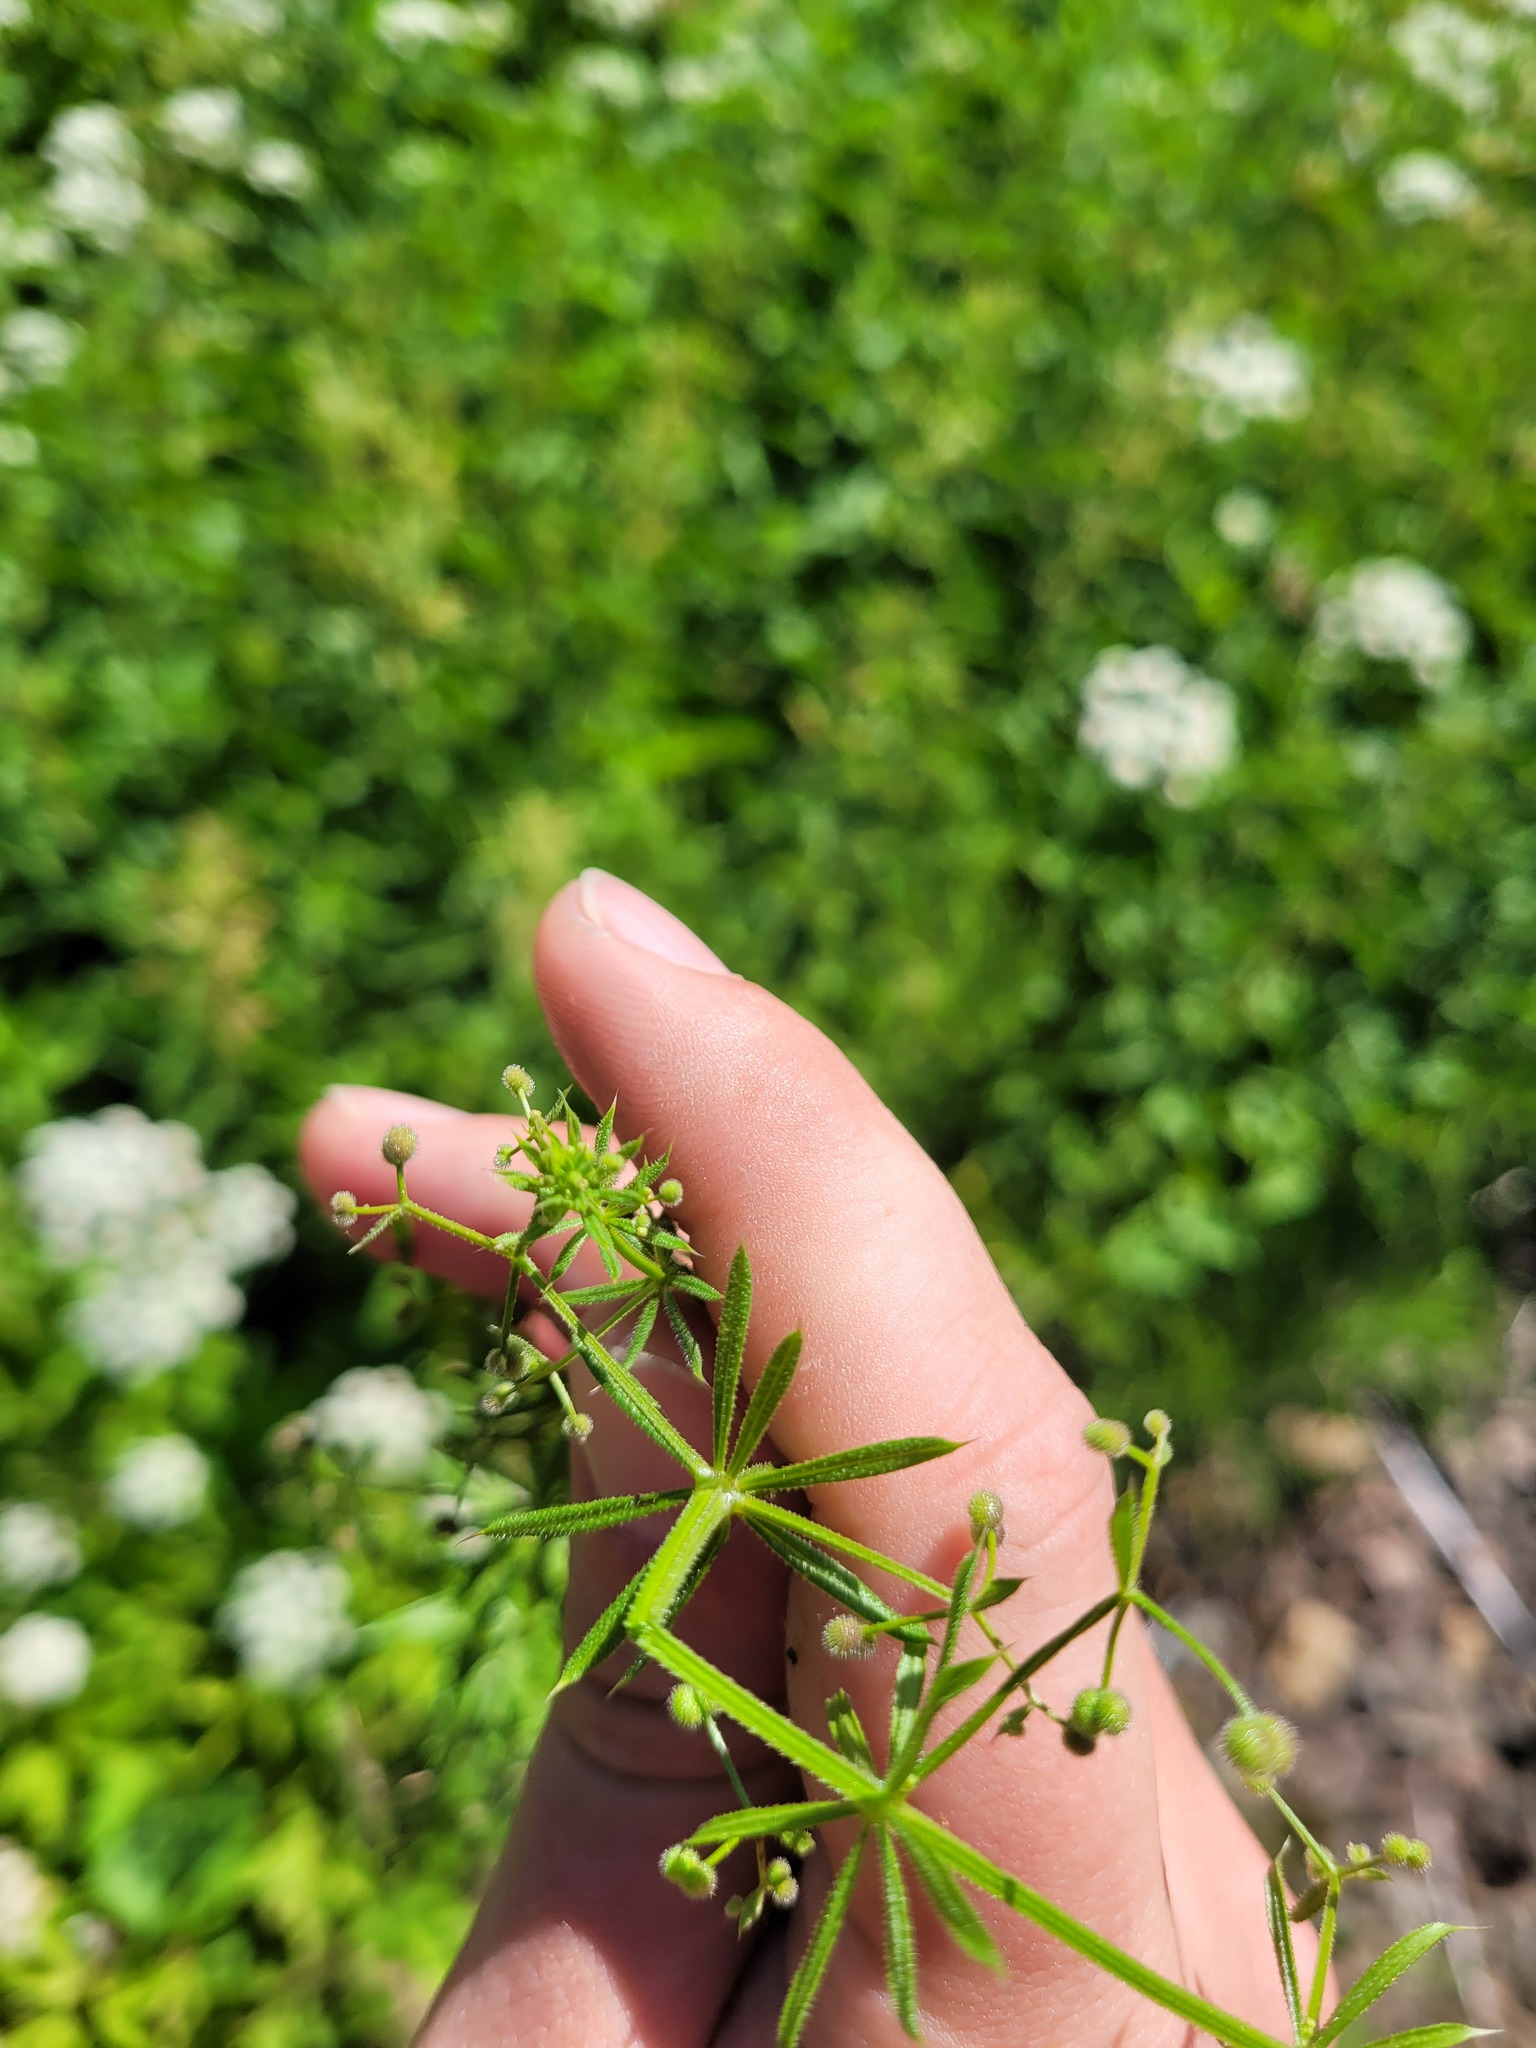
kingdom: Plantae
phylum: Tracheophyta
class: Magnoliopsida
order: Gentianales
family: Rubiaceae
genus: Galium
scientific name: Galium
